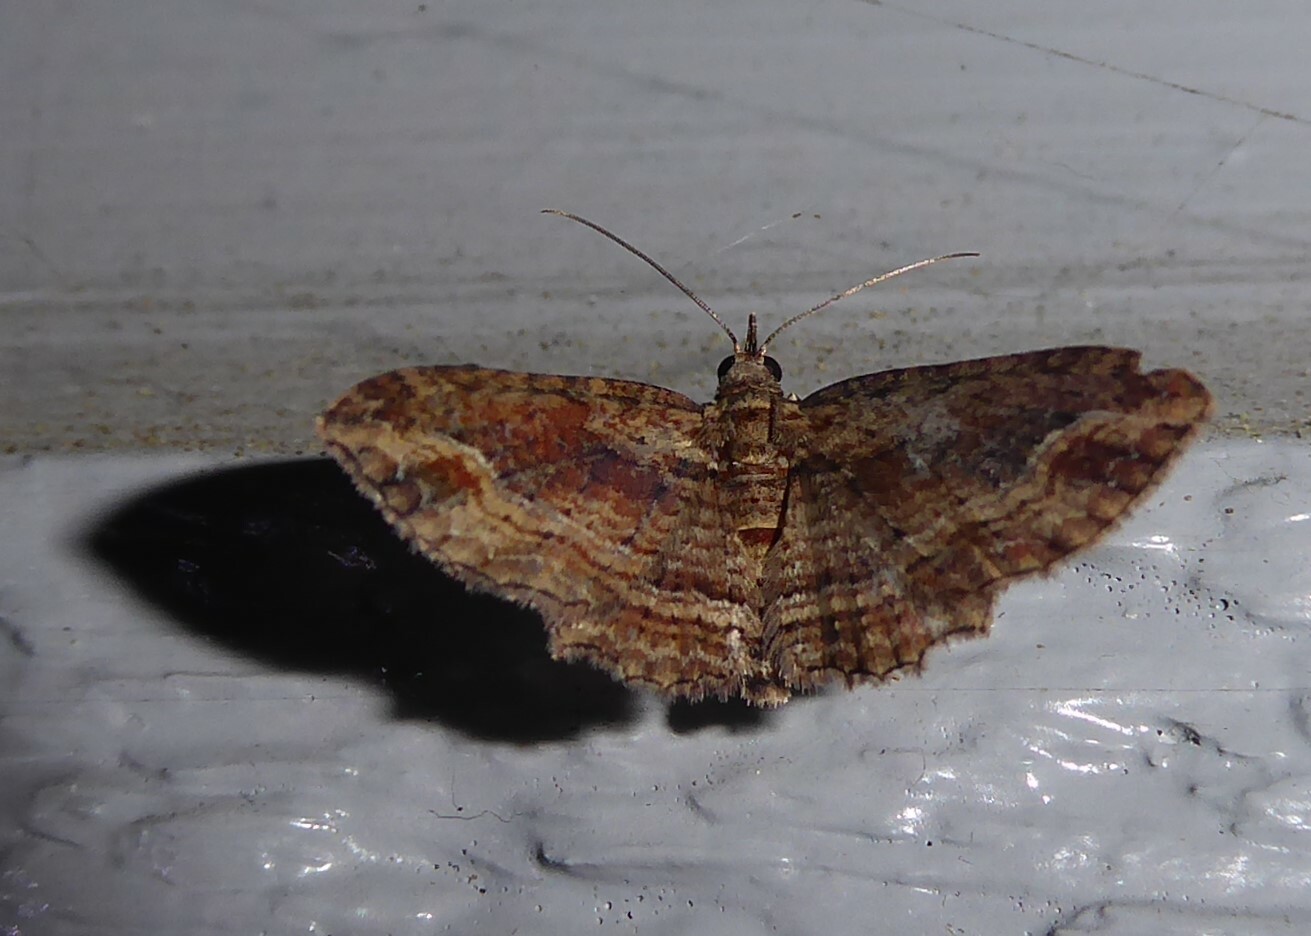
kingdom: Animalia
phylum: Arthropoda
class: Insecta
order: Lepidoptera
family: Geometridae
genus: Chloroclystis
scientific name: Chloroclystis filata
